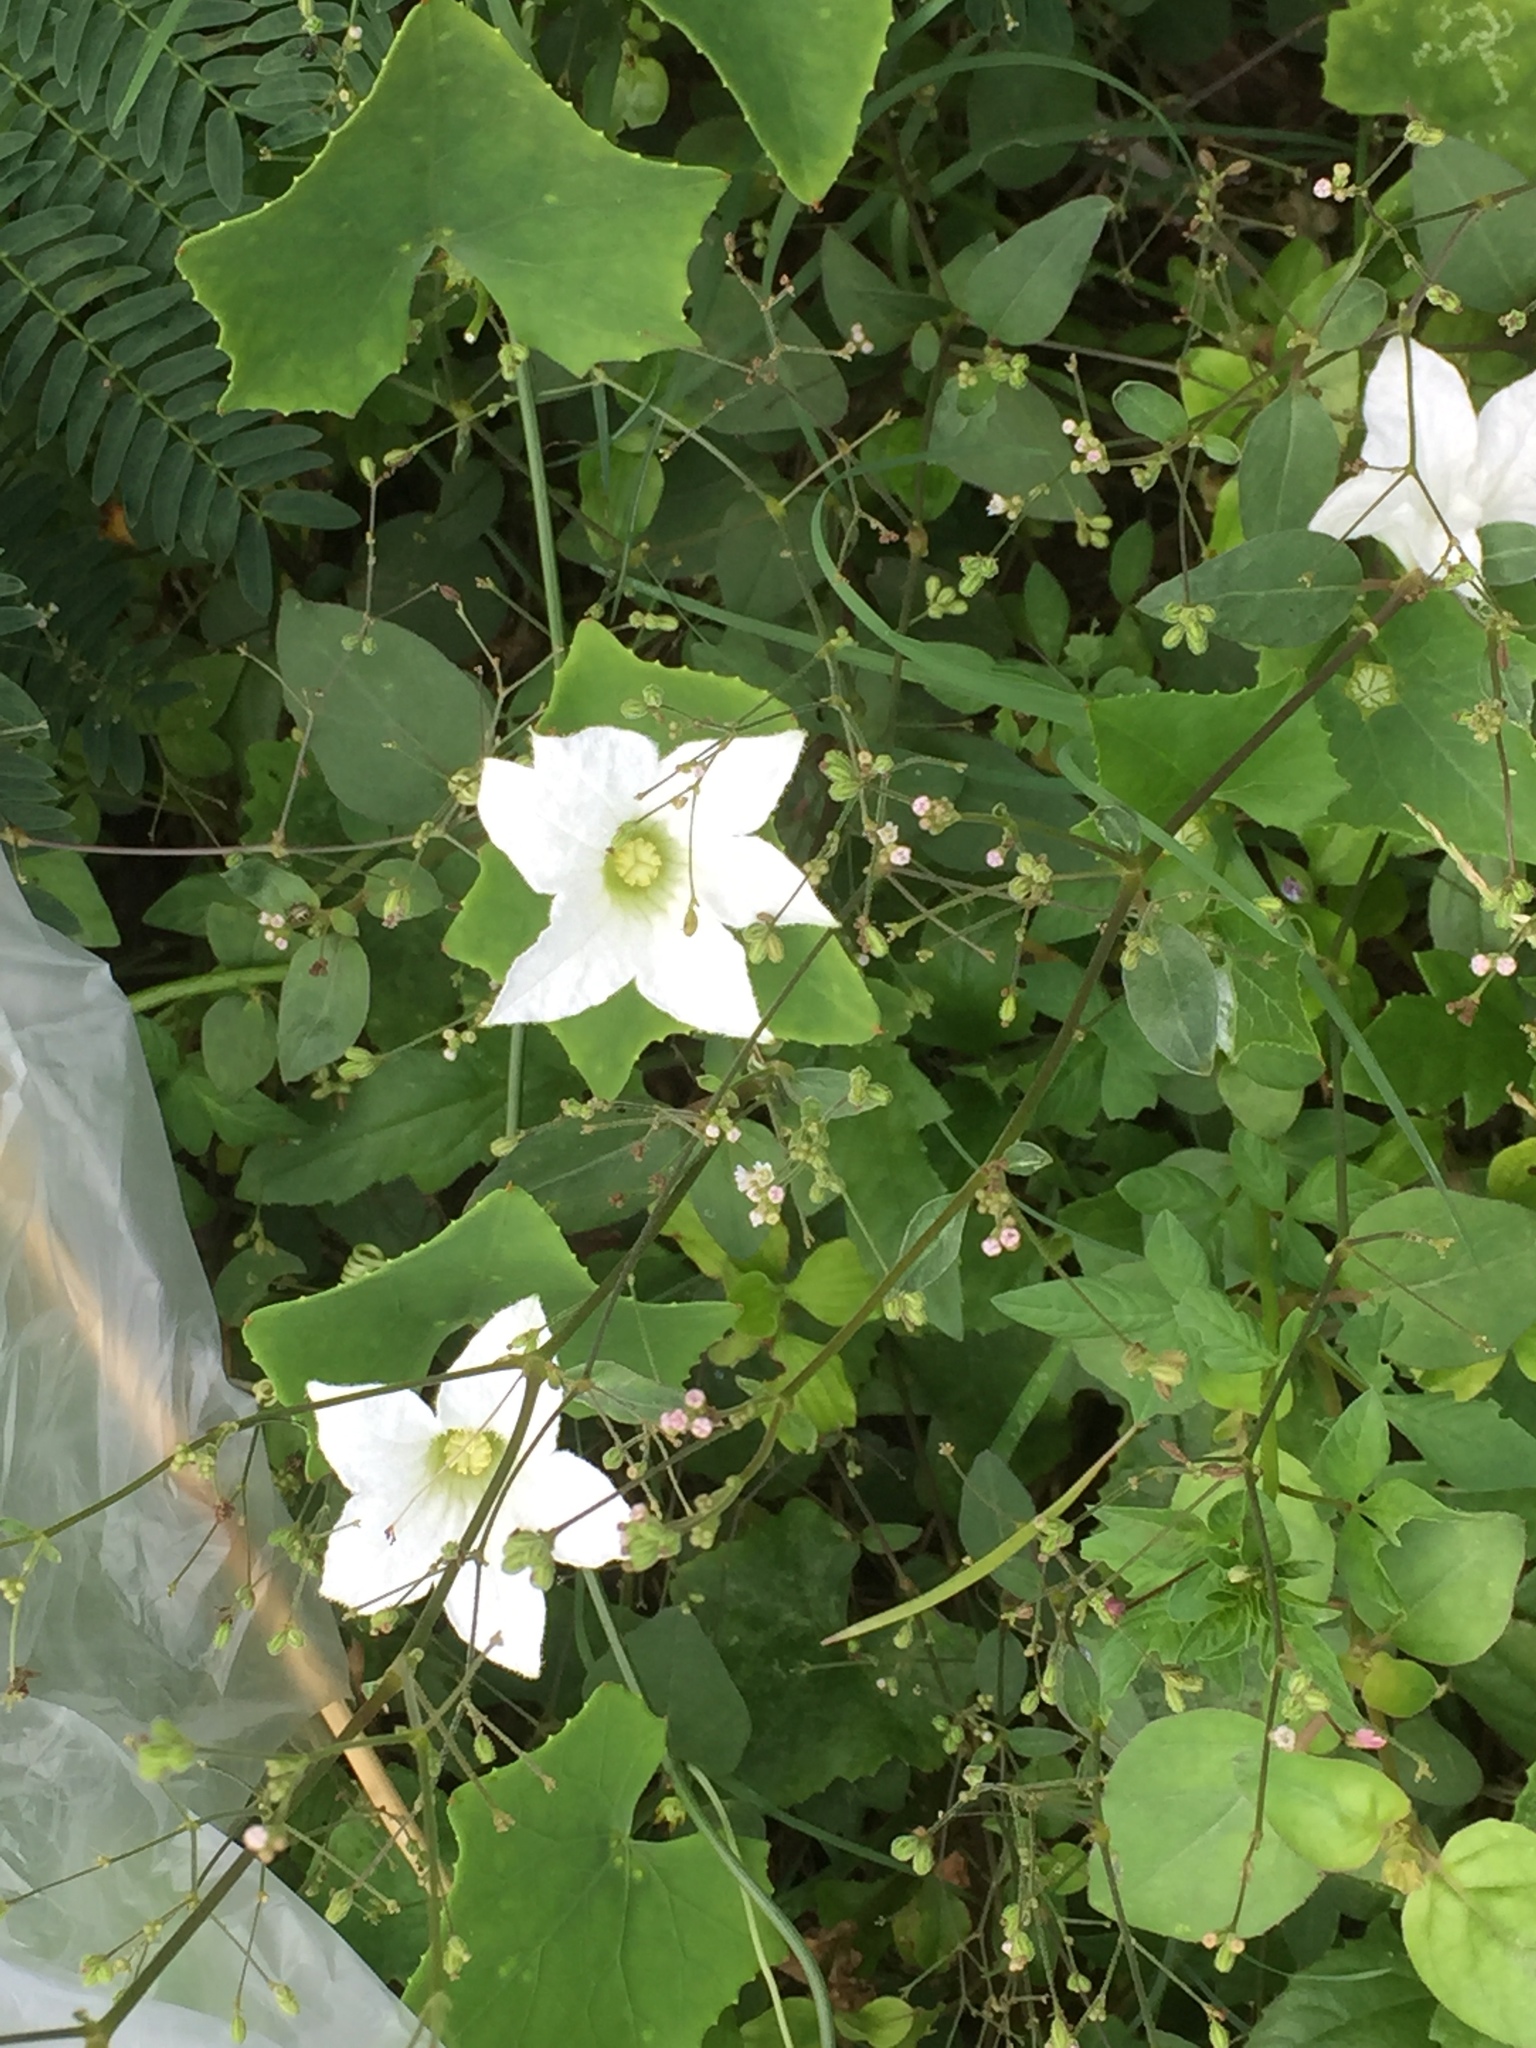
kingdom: Plantae
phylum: Tracheophyta
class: Magnoliopsida
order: Cucurbitales
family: Cucurbitaceae
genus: Coccinia
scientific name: Coccinia grandis
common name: Ivy gourd
